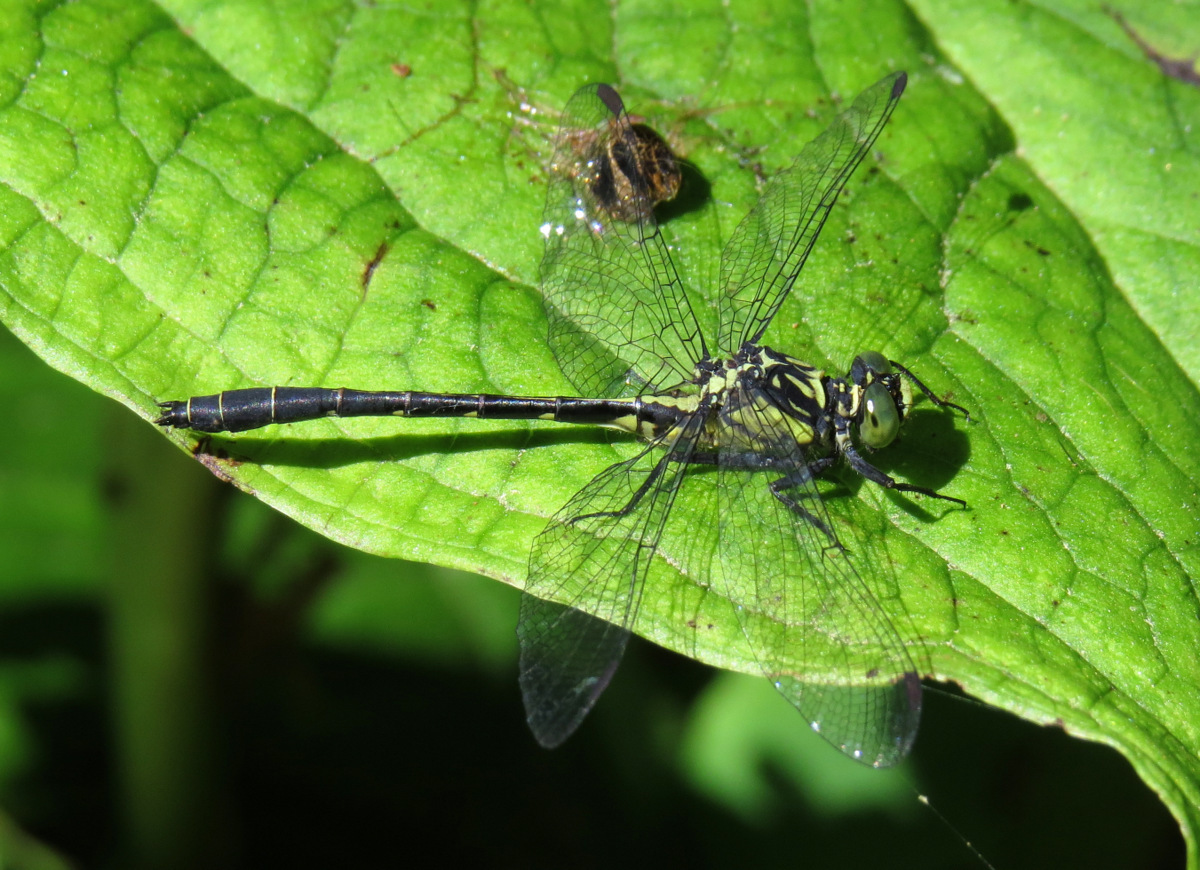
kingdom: Animalia
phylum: Arthropoda
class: Insecta
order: Odonata
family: Gomphidae
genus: Lanthus
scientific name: Lanthus vernalis
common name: Southern pygmy clubtail
